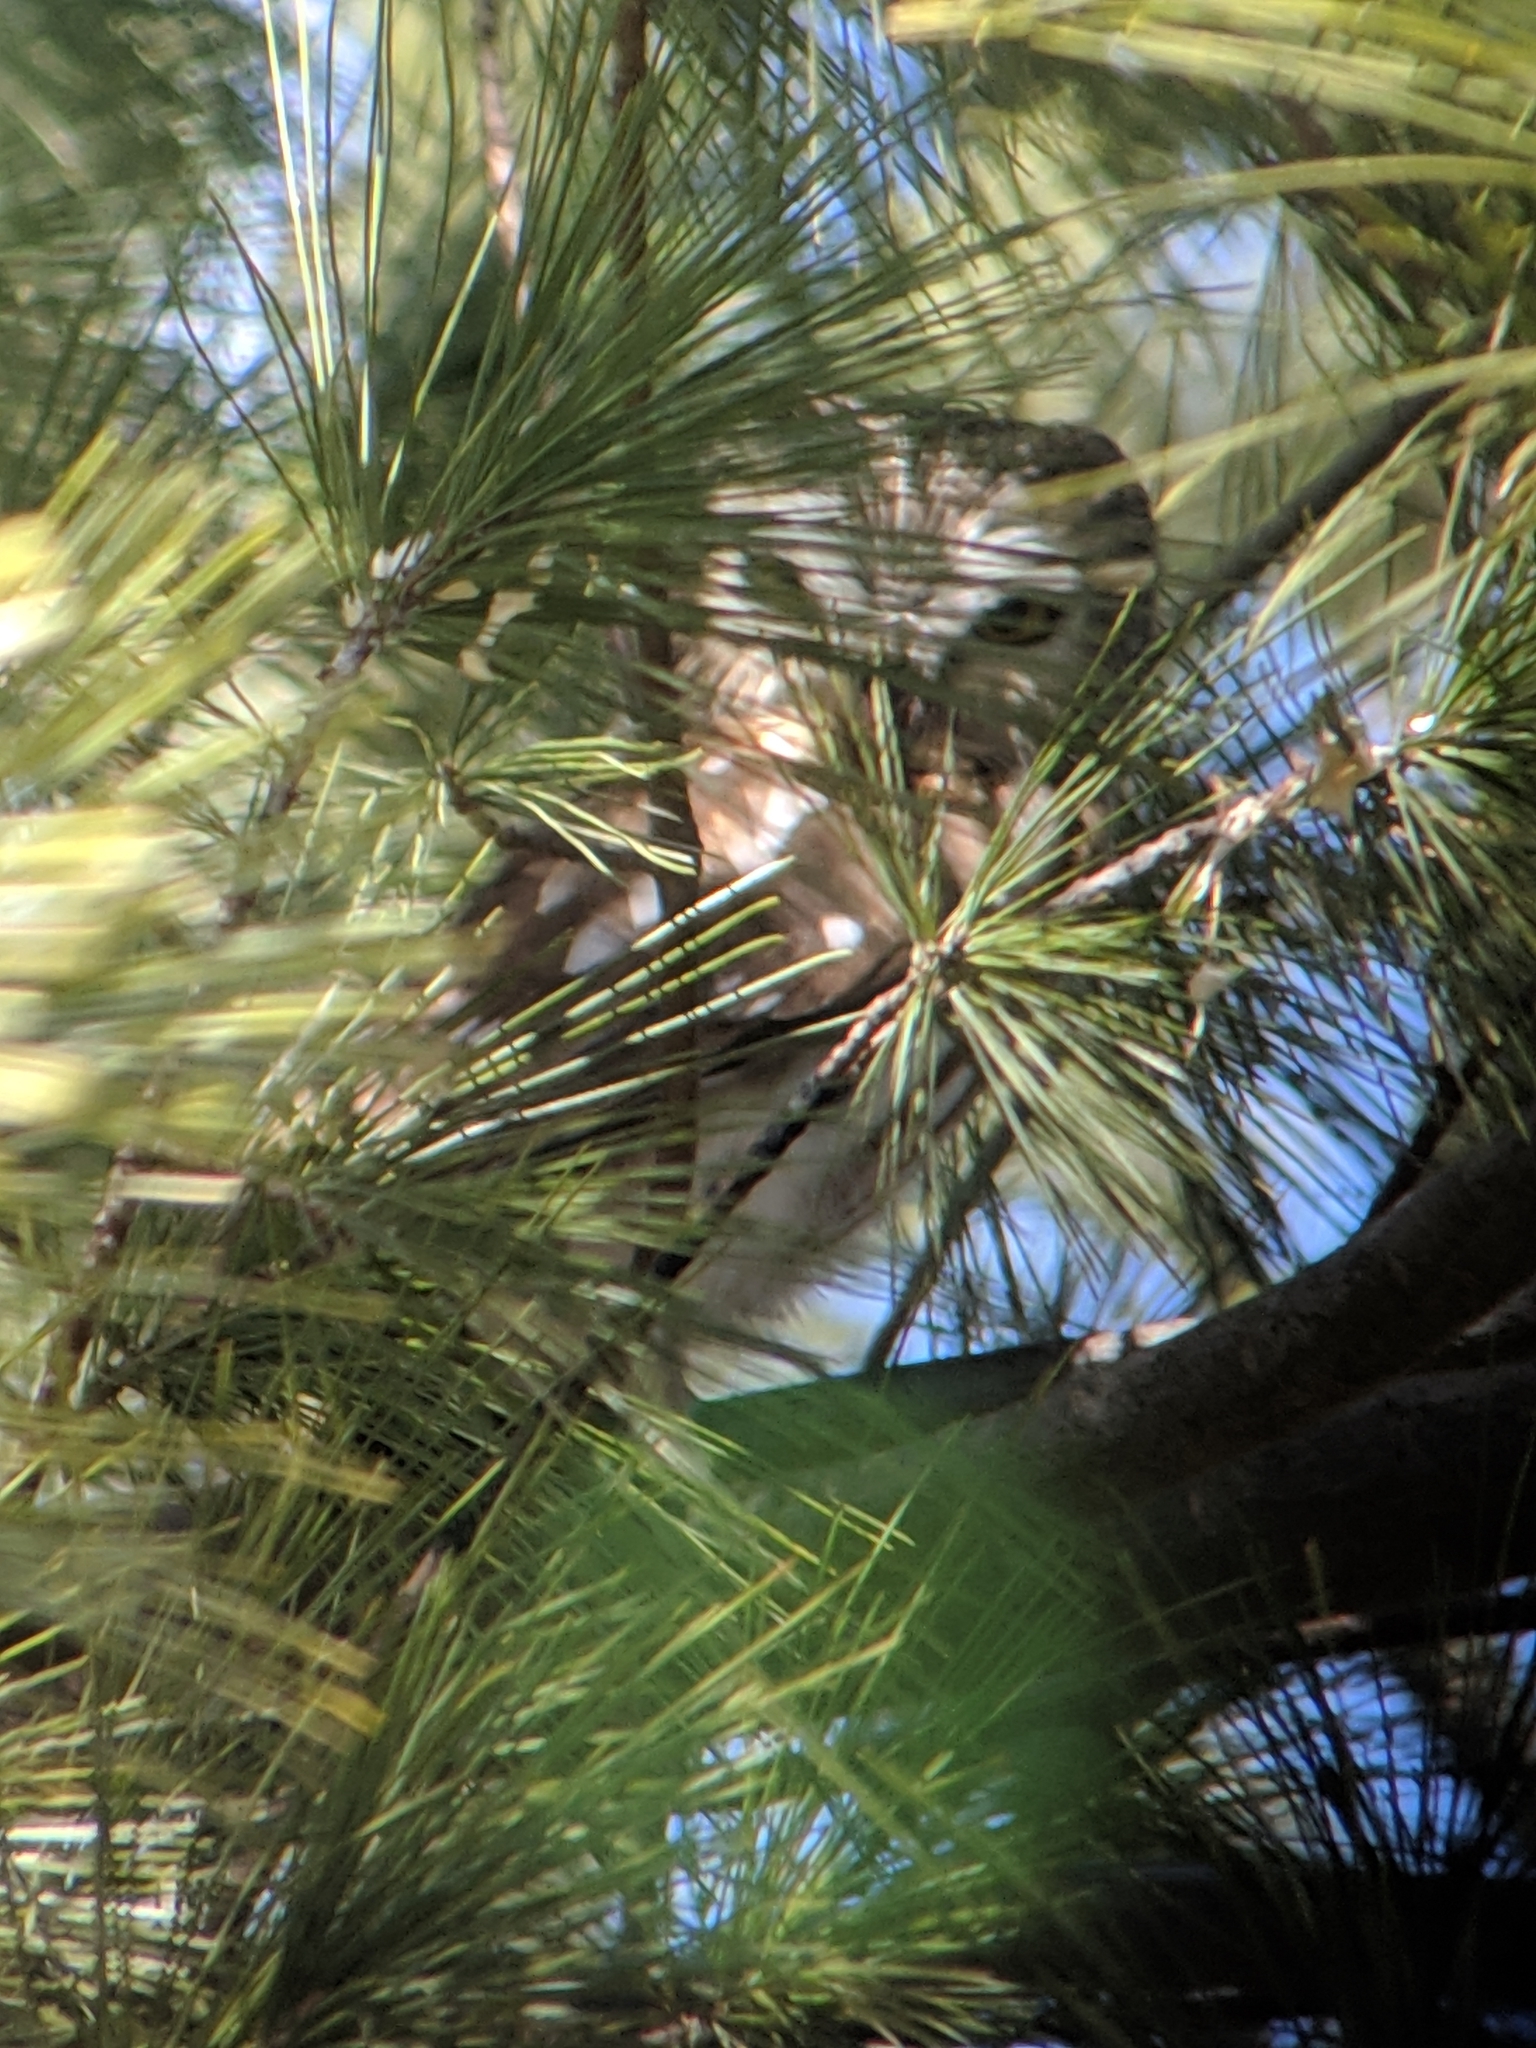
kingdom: Animalia
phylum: Chordata
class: Aves
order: Strigiformes
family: Strigidae
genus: Aegolius
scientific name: Aegolius acadicus
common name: Northern saw-whet owl
